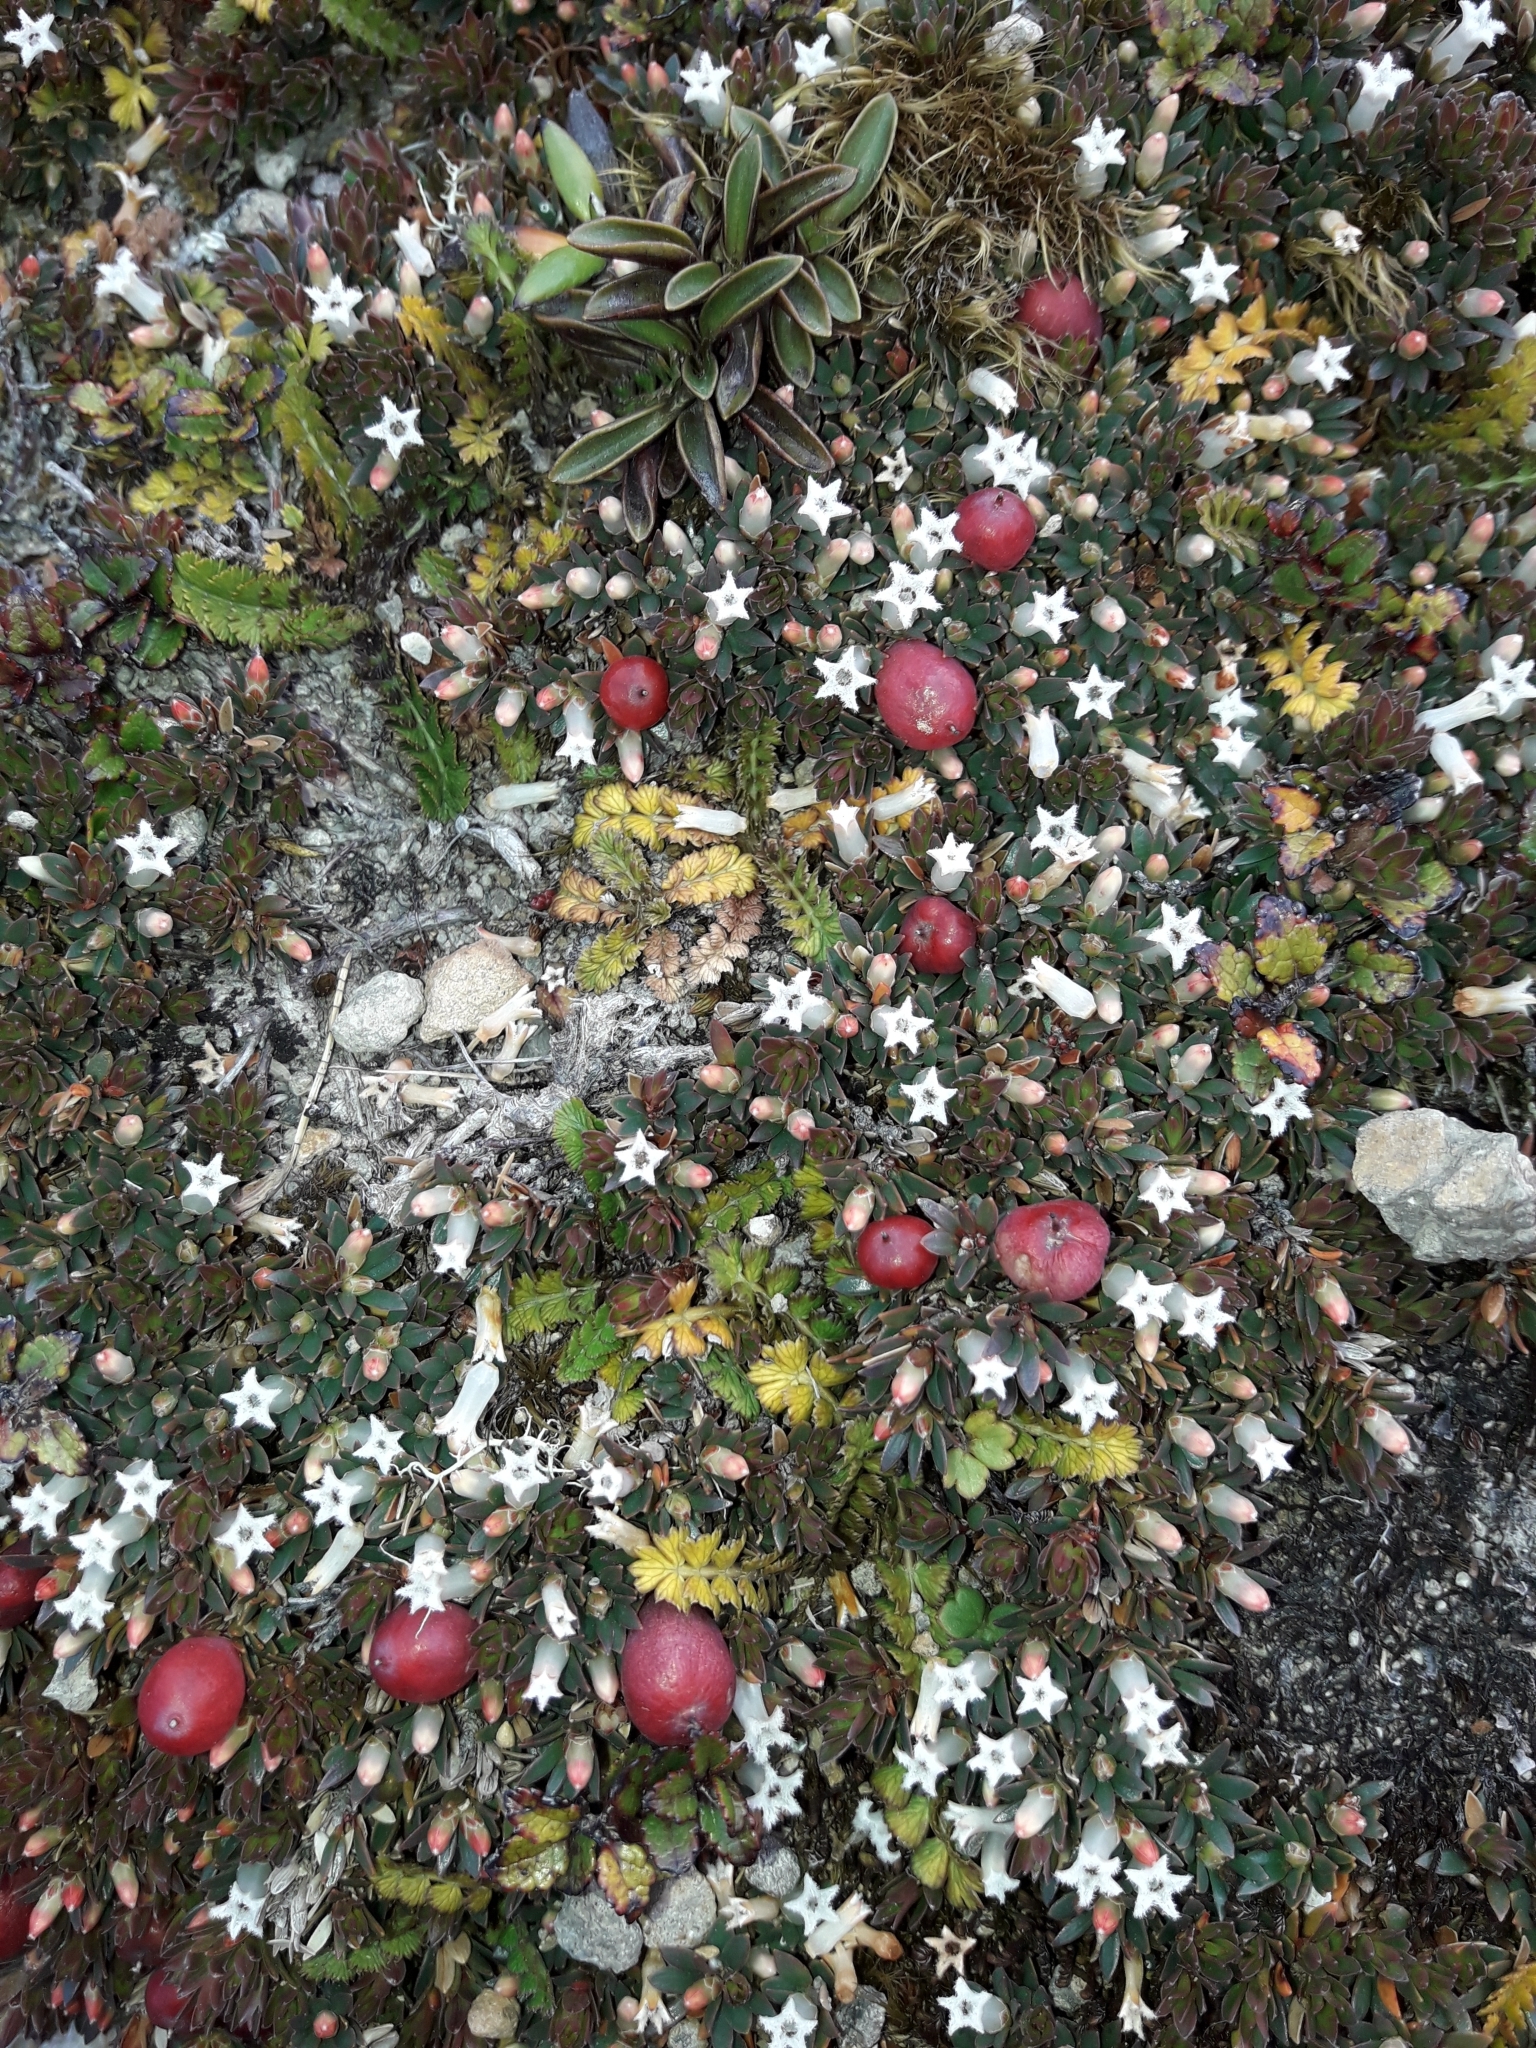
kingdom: Plantae
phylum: Tracheophyta
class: Magnoliopsida
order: Ericales
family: Ericaceae
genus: Pentachondra
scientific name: Pentachondra pumila
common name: Carpet-heath
